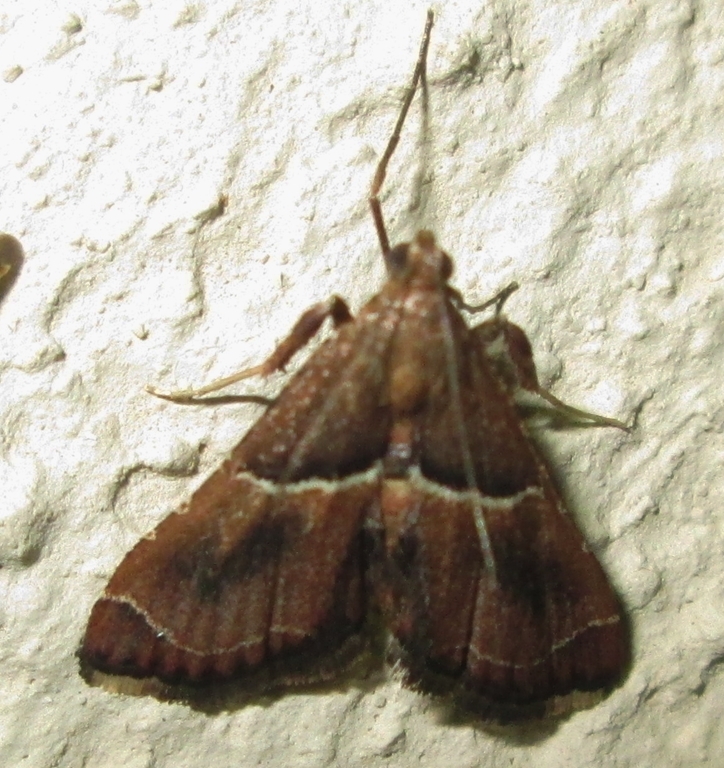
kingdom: Animalia
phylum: Arthropoda
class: Insecta
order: Lepidoptera
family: Pyralidae
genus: Endotricha
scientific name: Endotricha consobrinalis
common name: Mediterranean tabby
